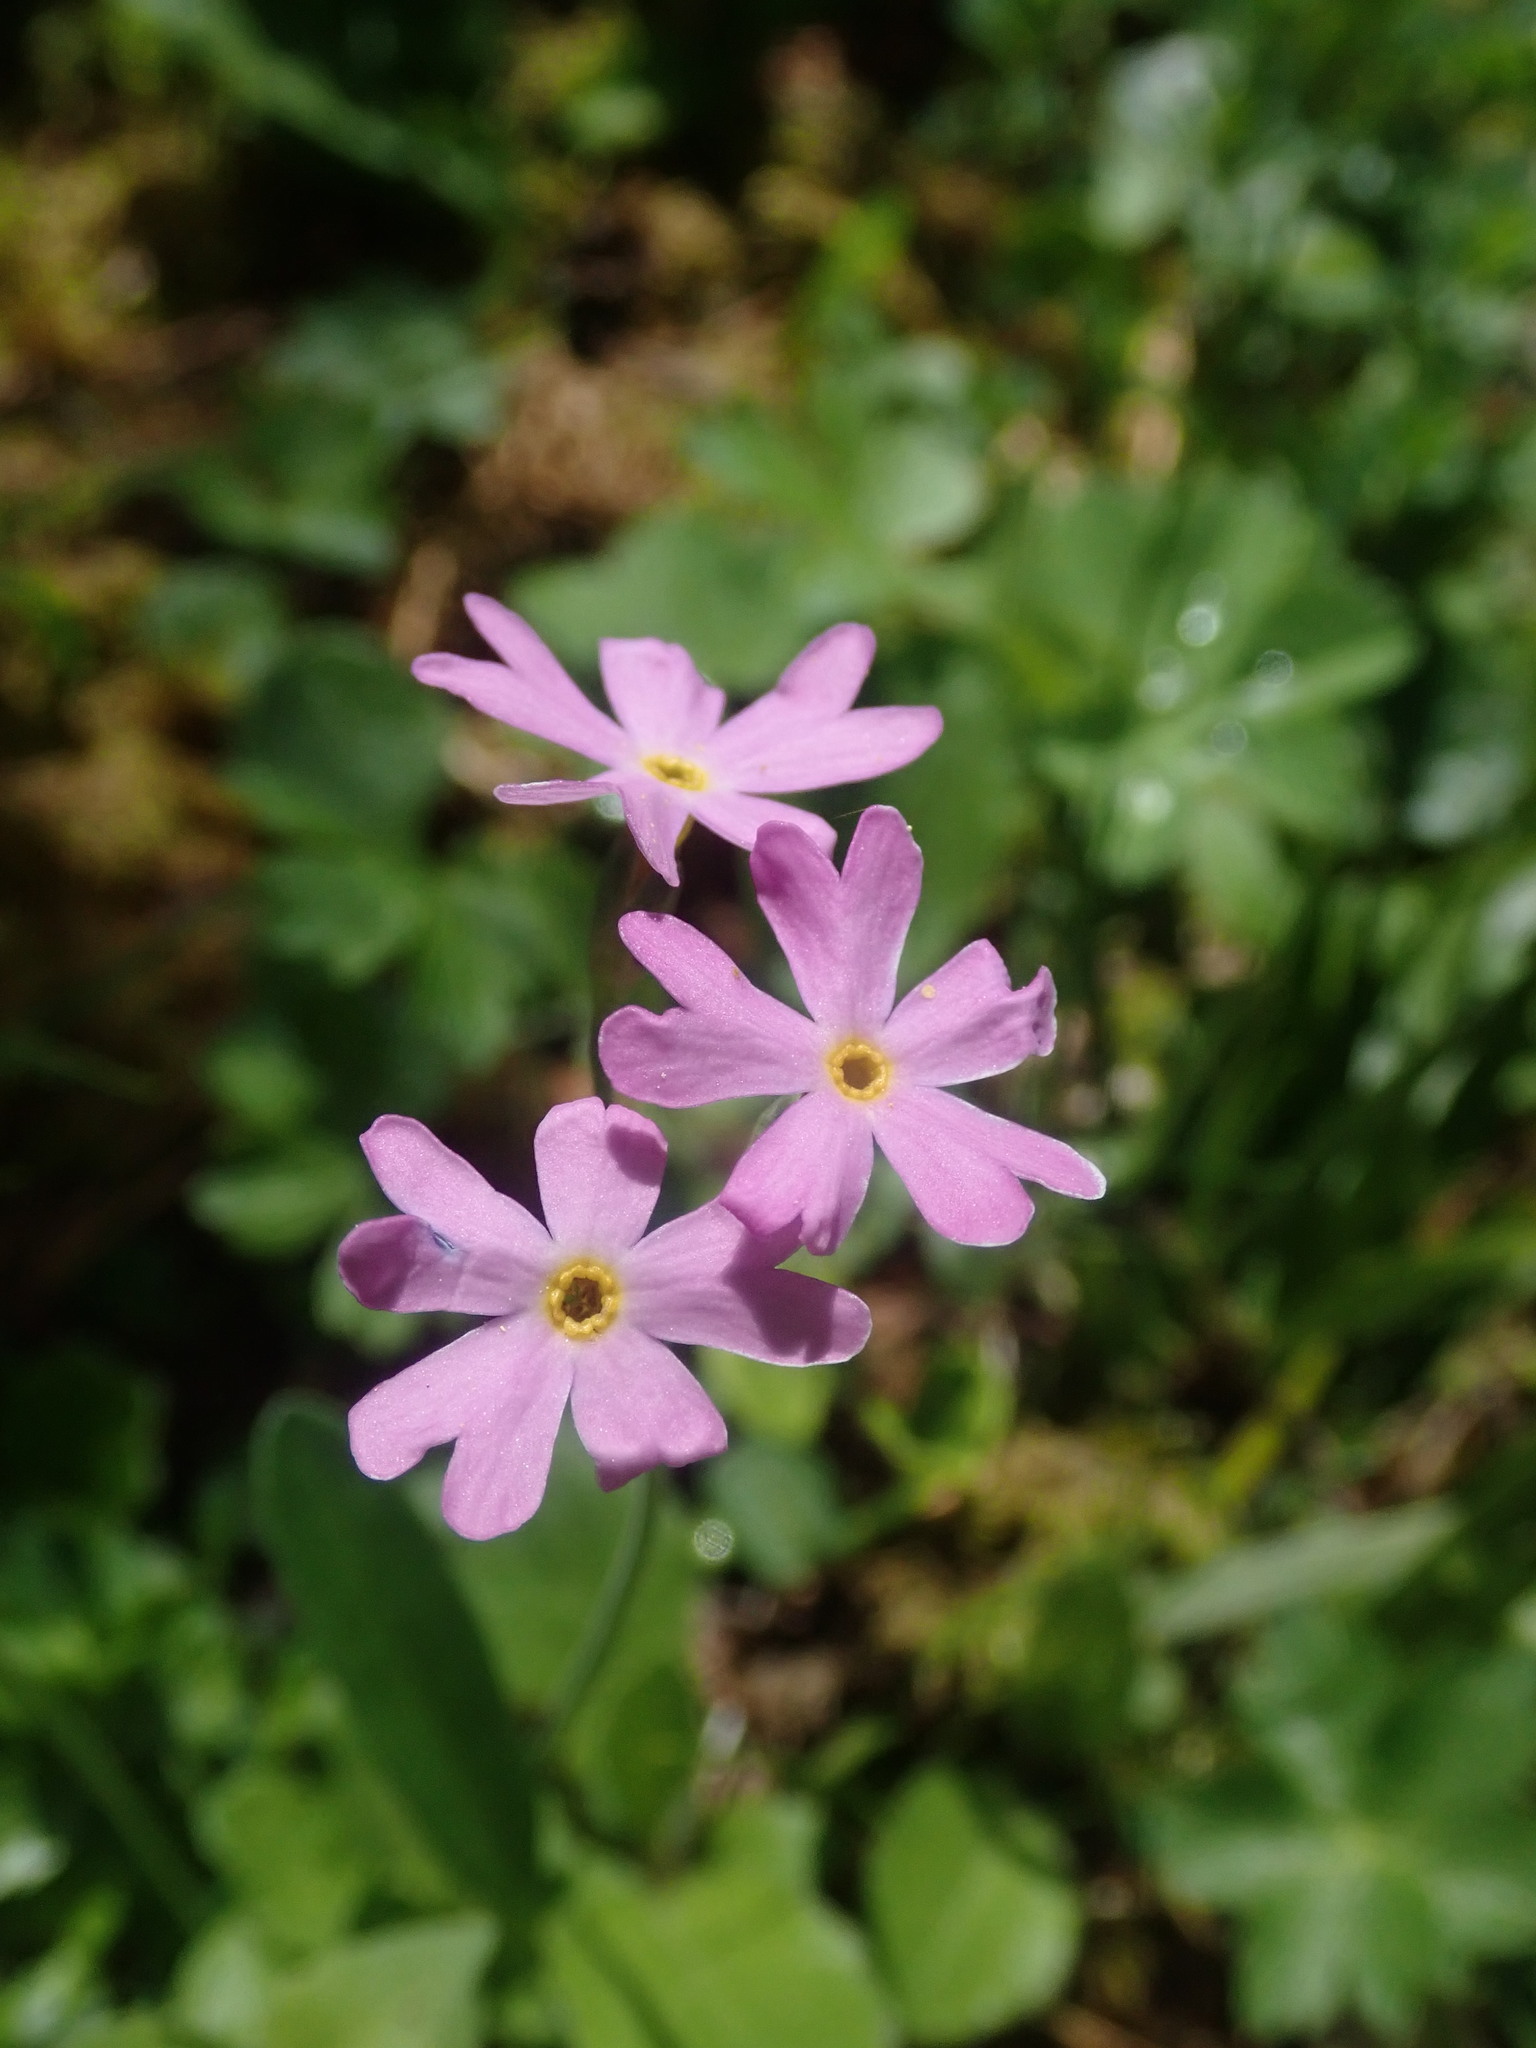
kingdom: Plantae
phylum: Tracheophyta
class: Magnoliopsida
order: Ericales
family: Primulaceae
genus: Primula
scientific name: Primula farinosa
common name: Bird's-eye primrose
